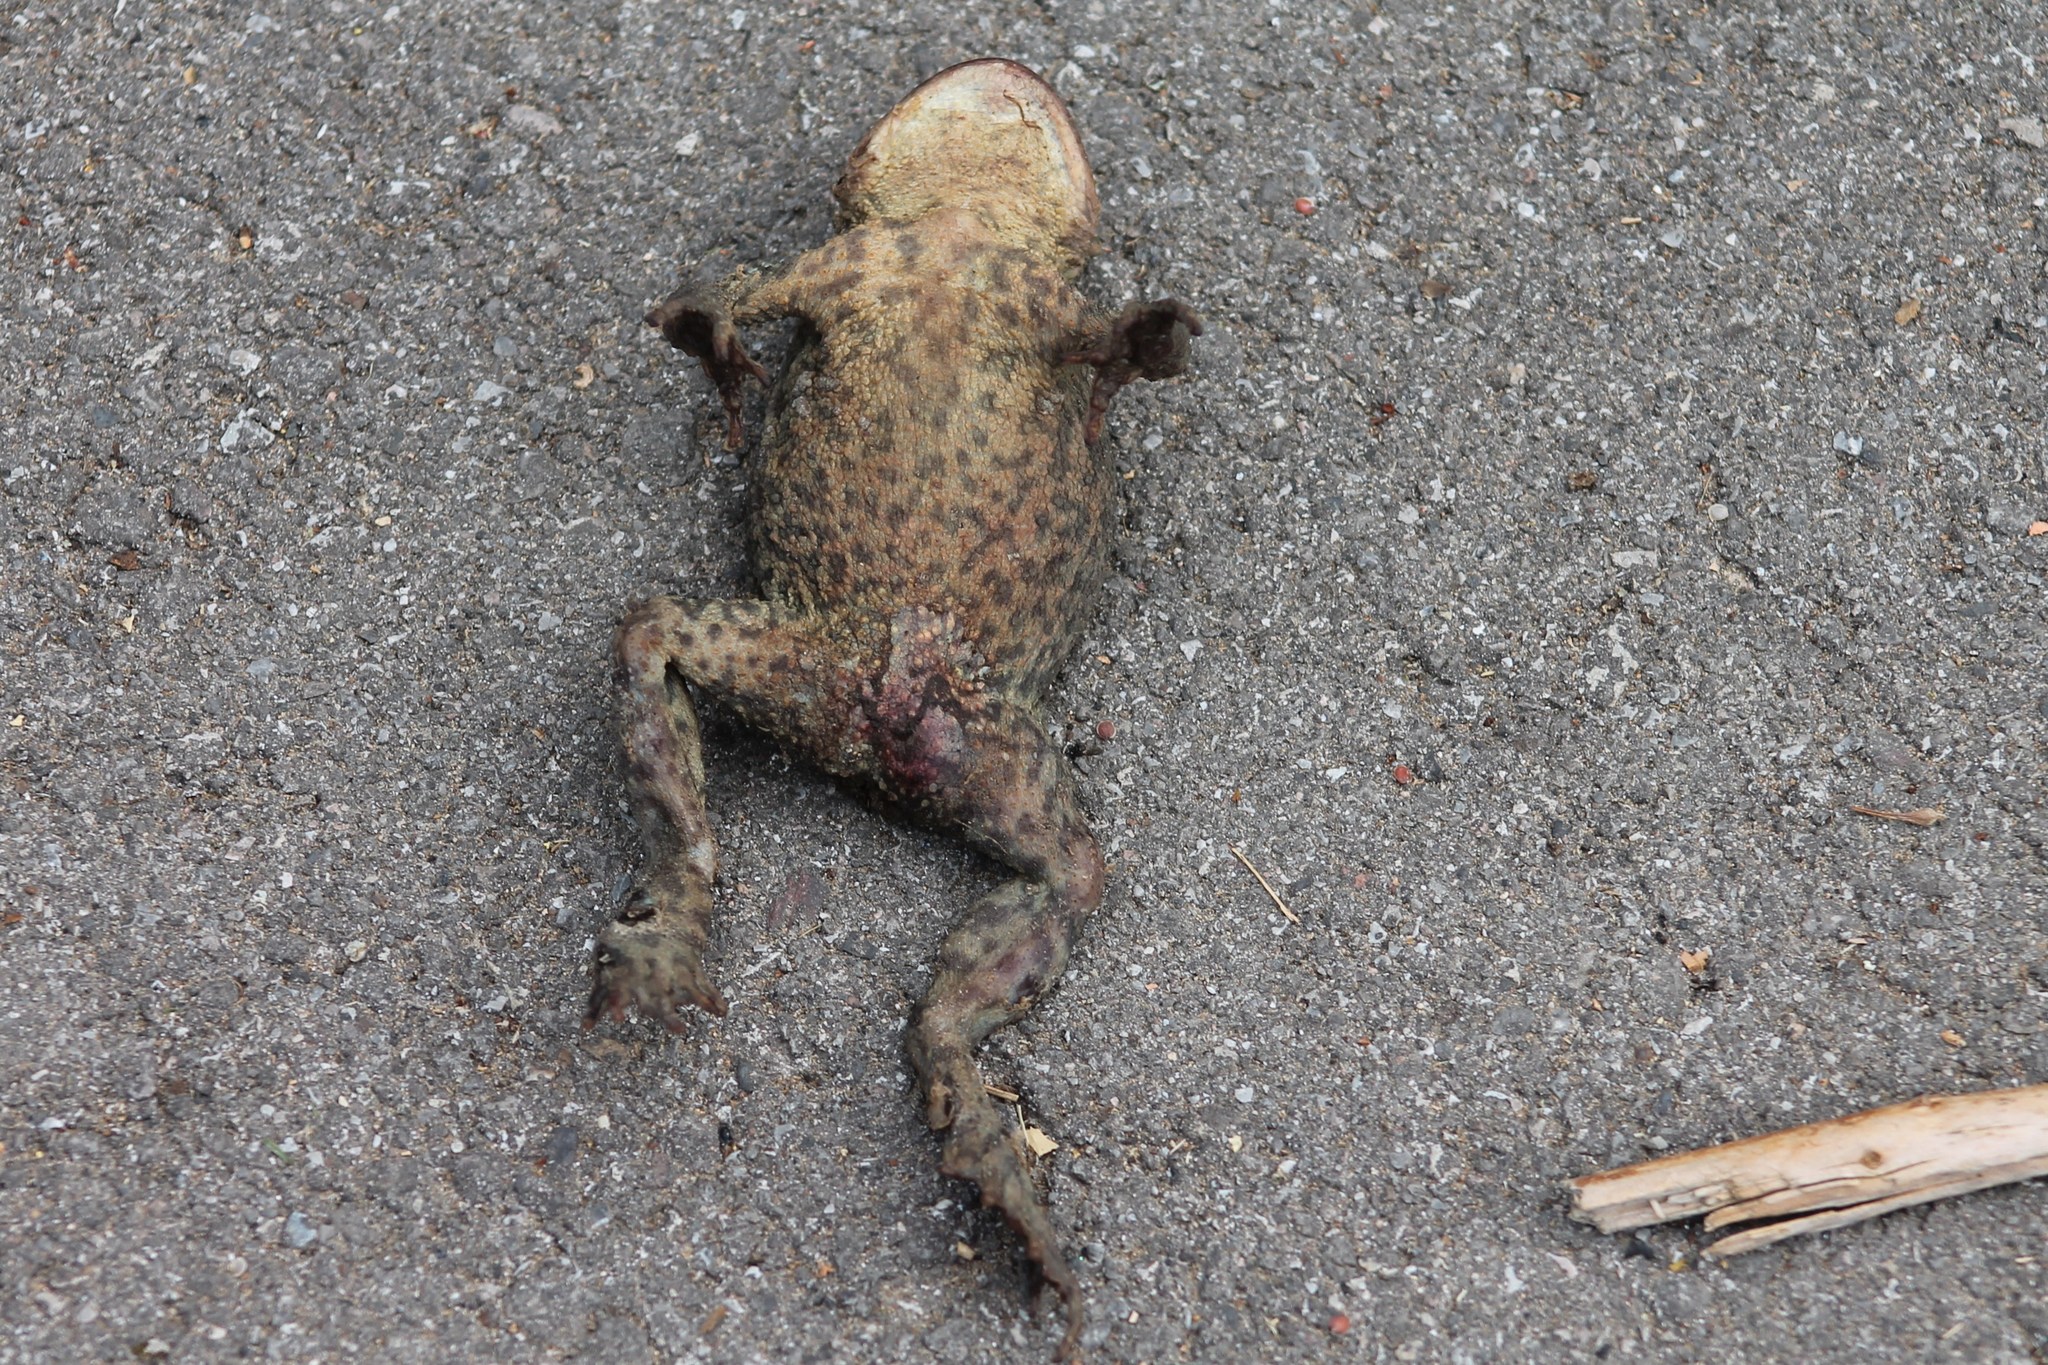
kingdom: Animalia
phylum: Chordata
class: Amphibia
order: Anura
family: Bufonidae
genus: Bufo
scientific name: Bufo bufo
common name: Common toad
